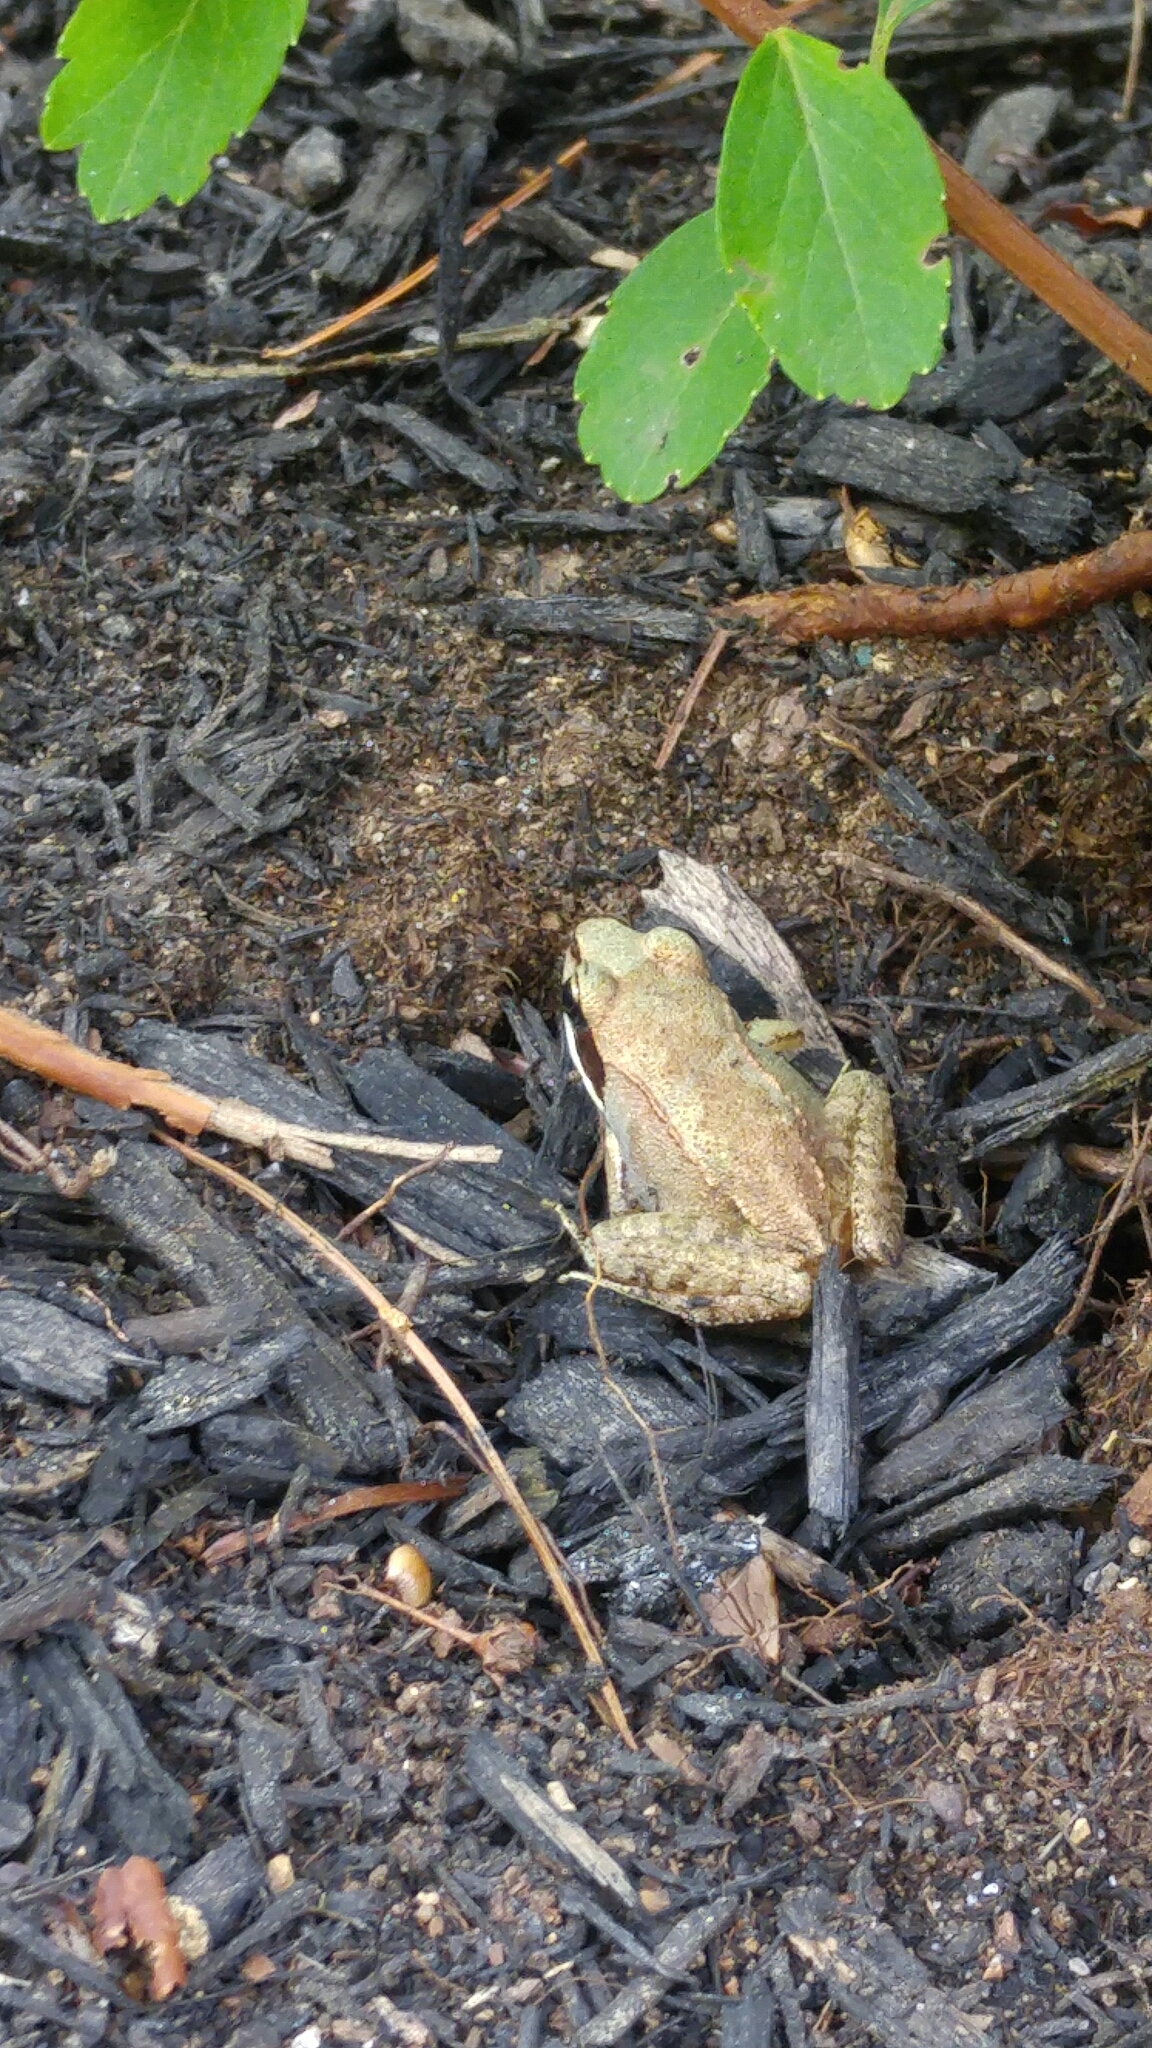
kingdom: Animalia
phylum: Chordata
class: Amphibia
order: Anura
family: Ranidae
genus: Lithobates
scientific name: Lithobates sylvaticus
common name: Wood frog
